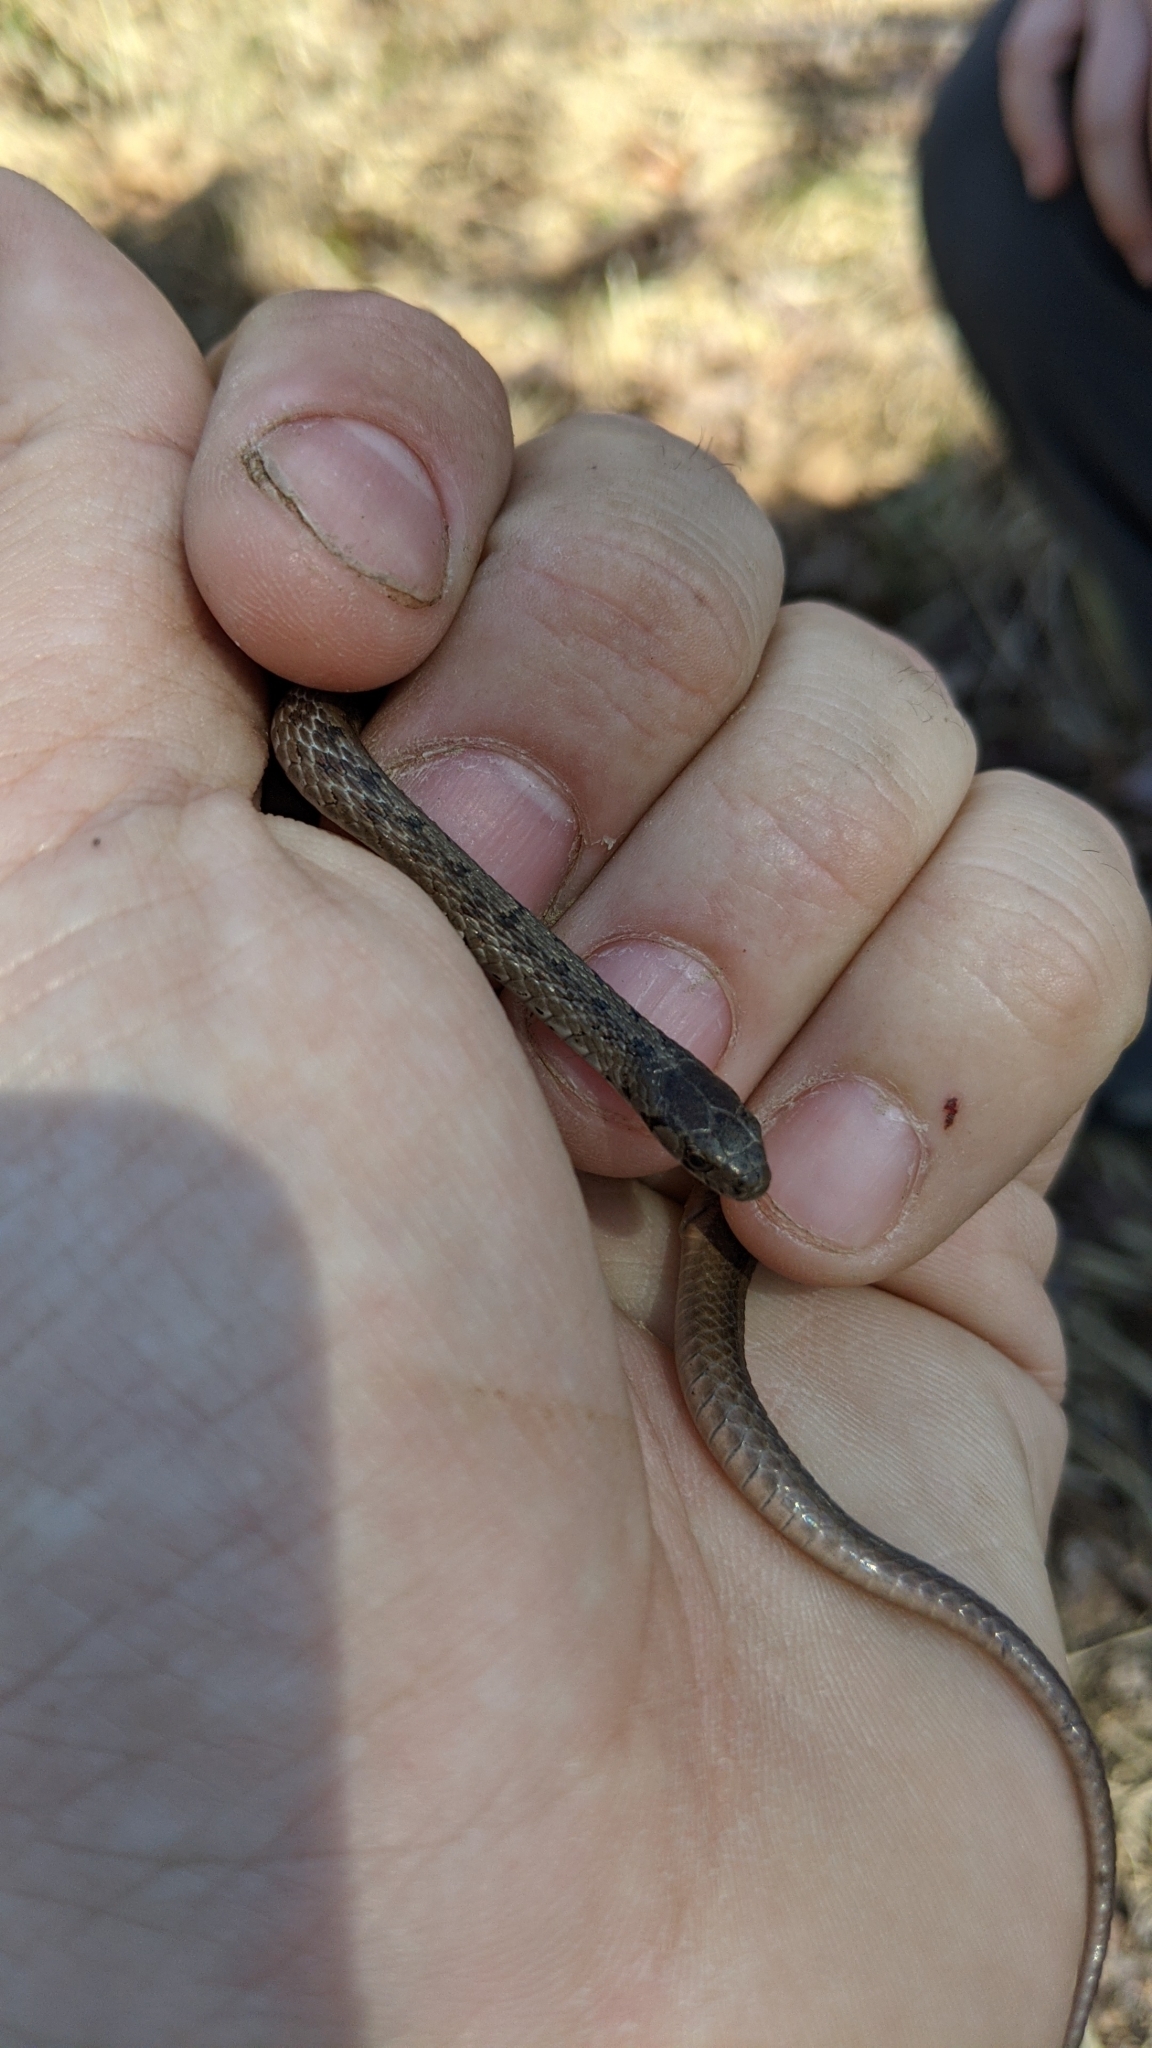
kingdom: Animalia
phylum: Chordata
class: Squamata
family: Colubridae
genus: Storeria
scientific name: Storeria dekayi
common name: (dekay’s) brown snake
